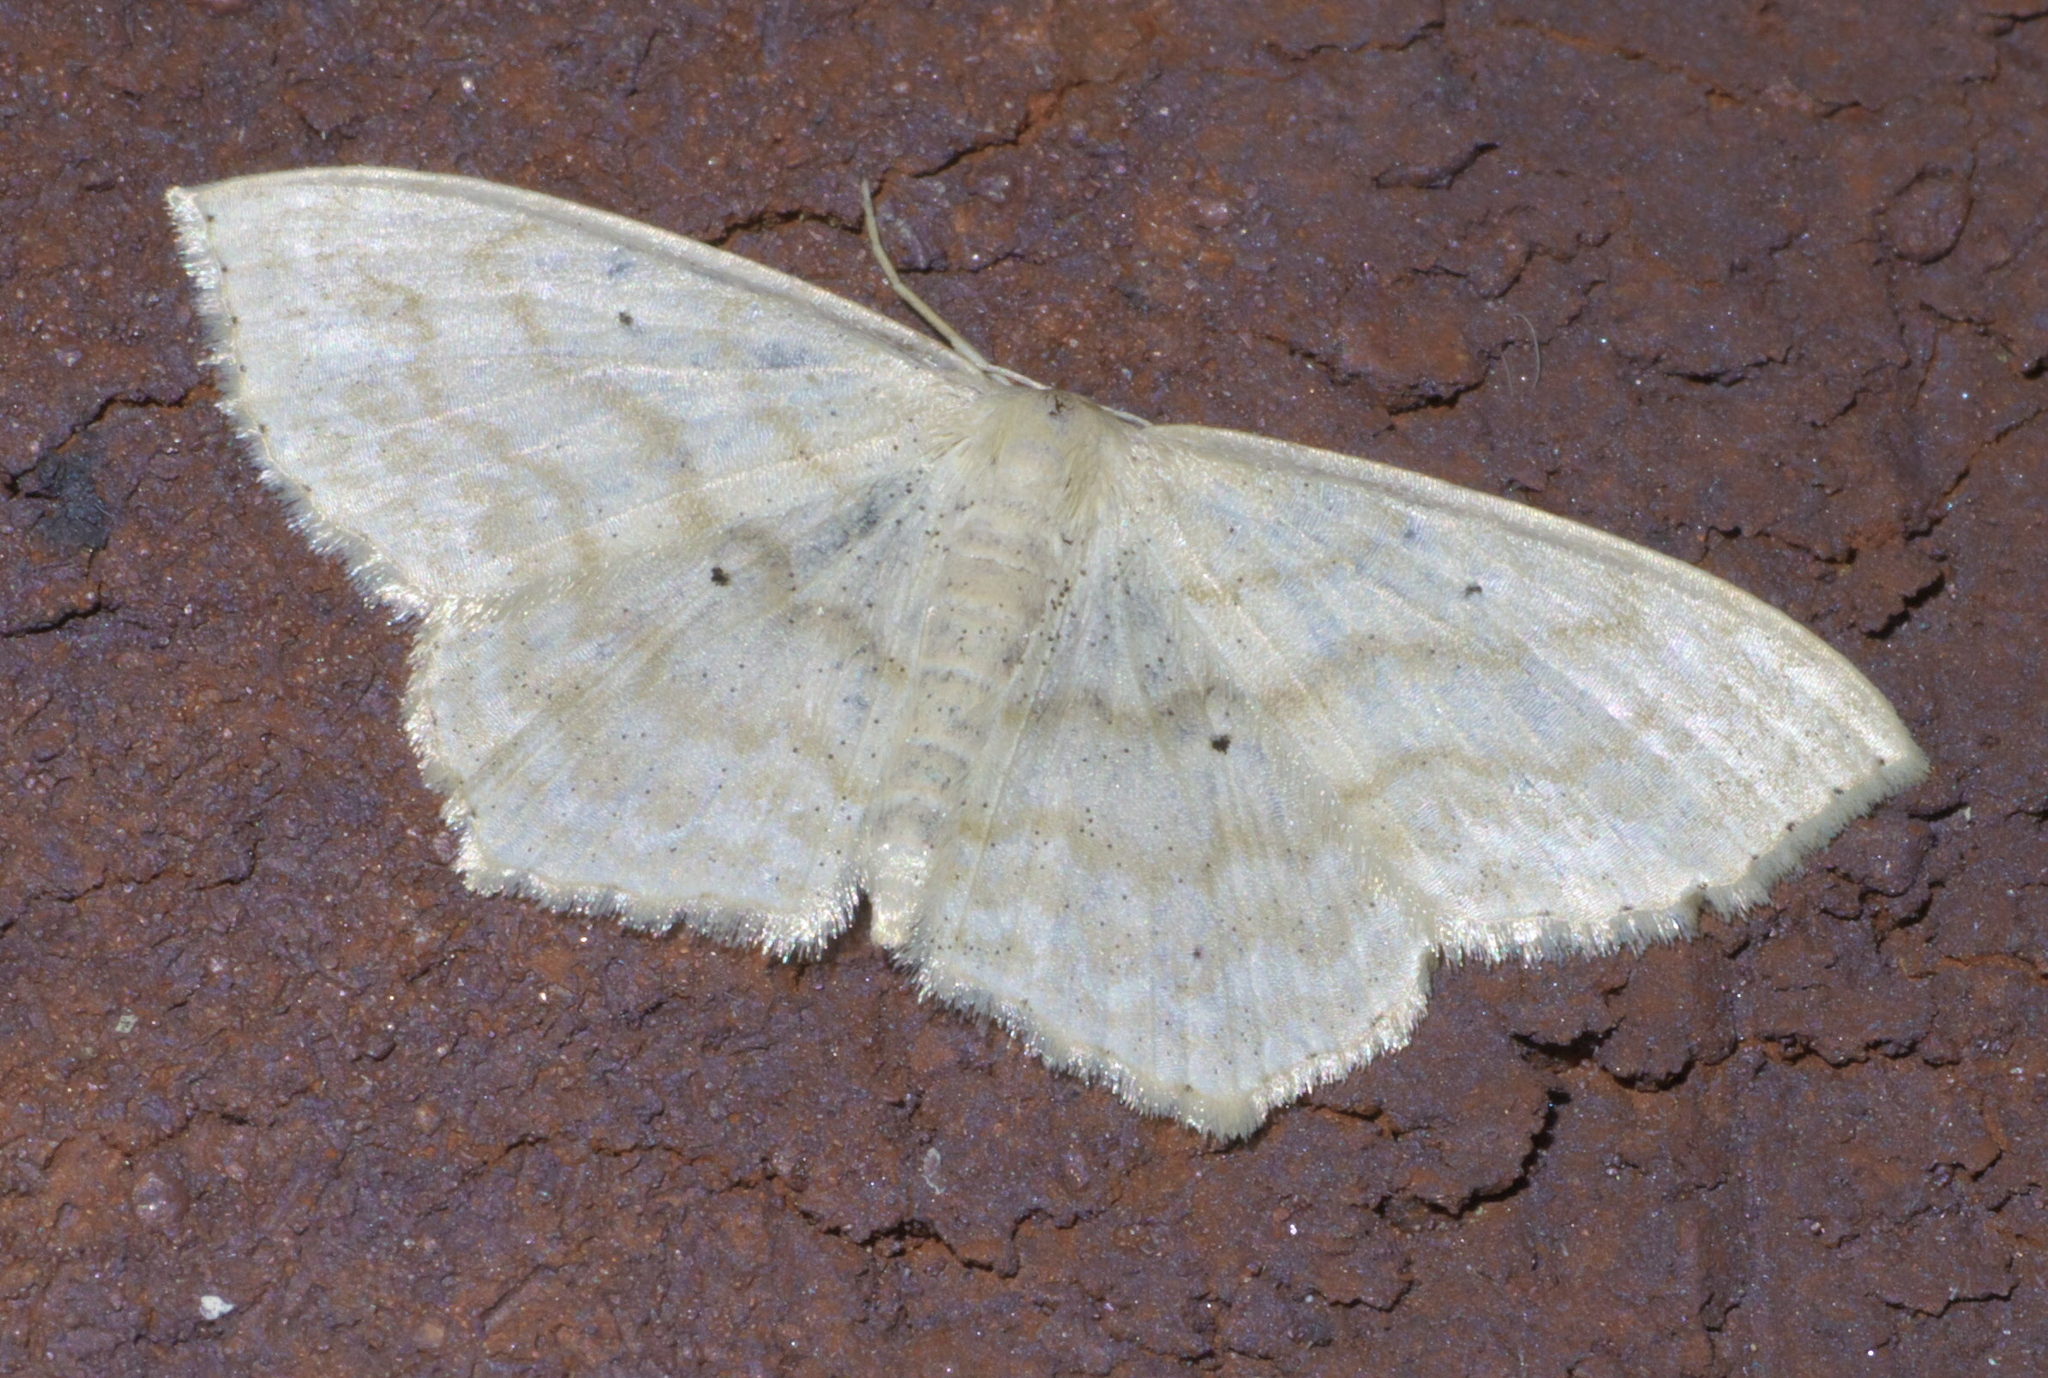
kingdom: Animalia
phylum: Arthropoda
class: Insecta
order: Lepidoptera
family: Geometridae
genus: Scopula
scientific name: Scopula limboundata
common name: Large lace border
